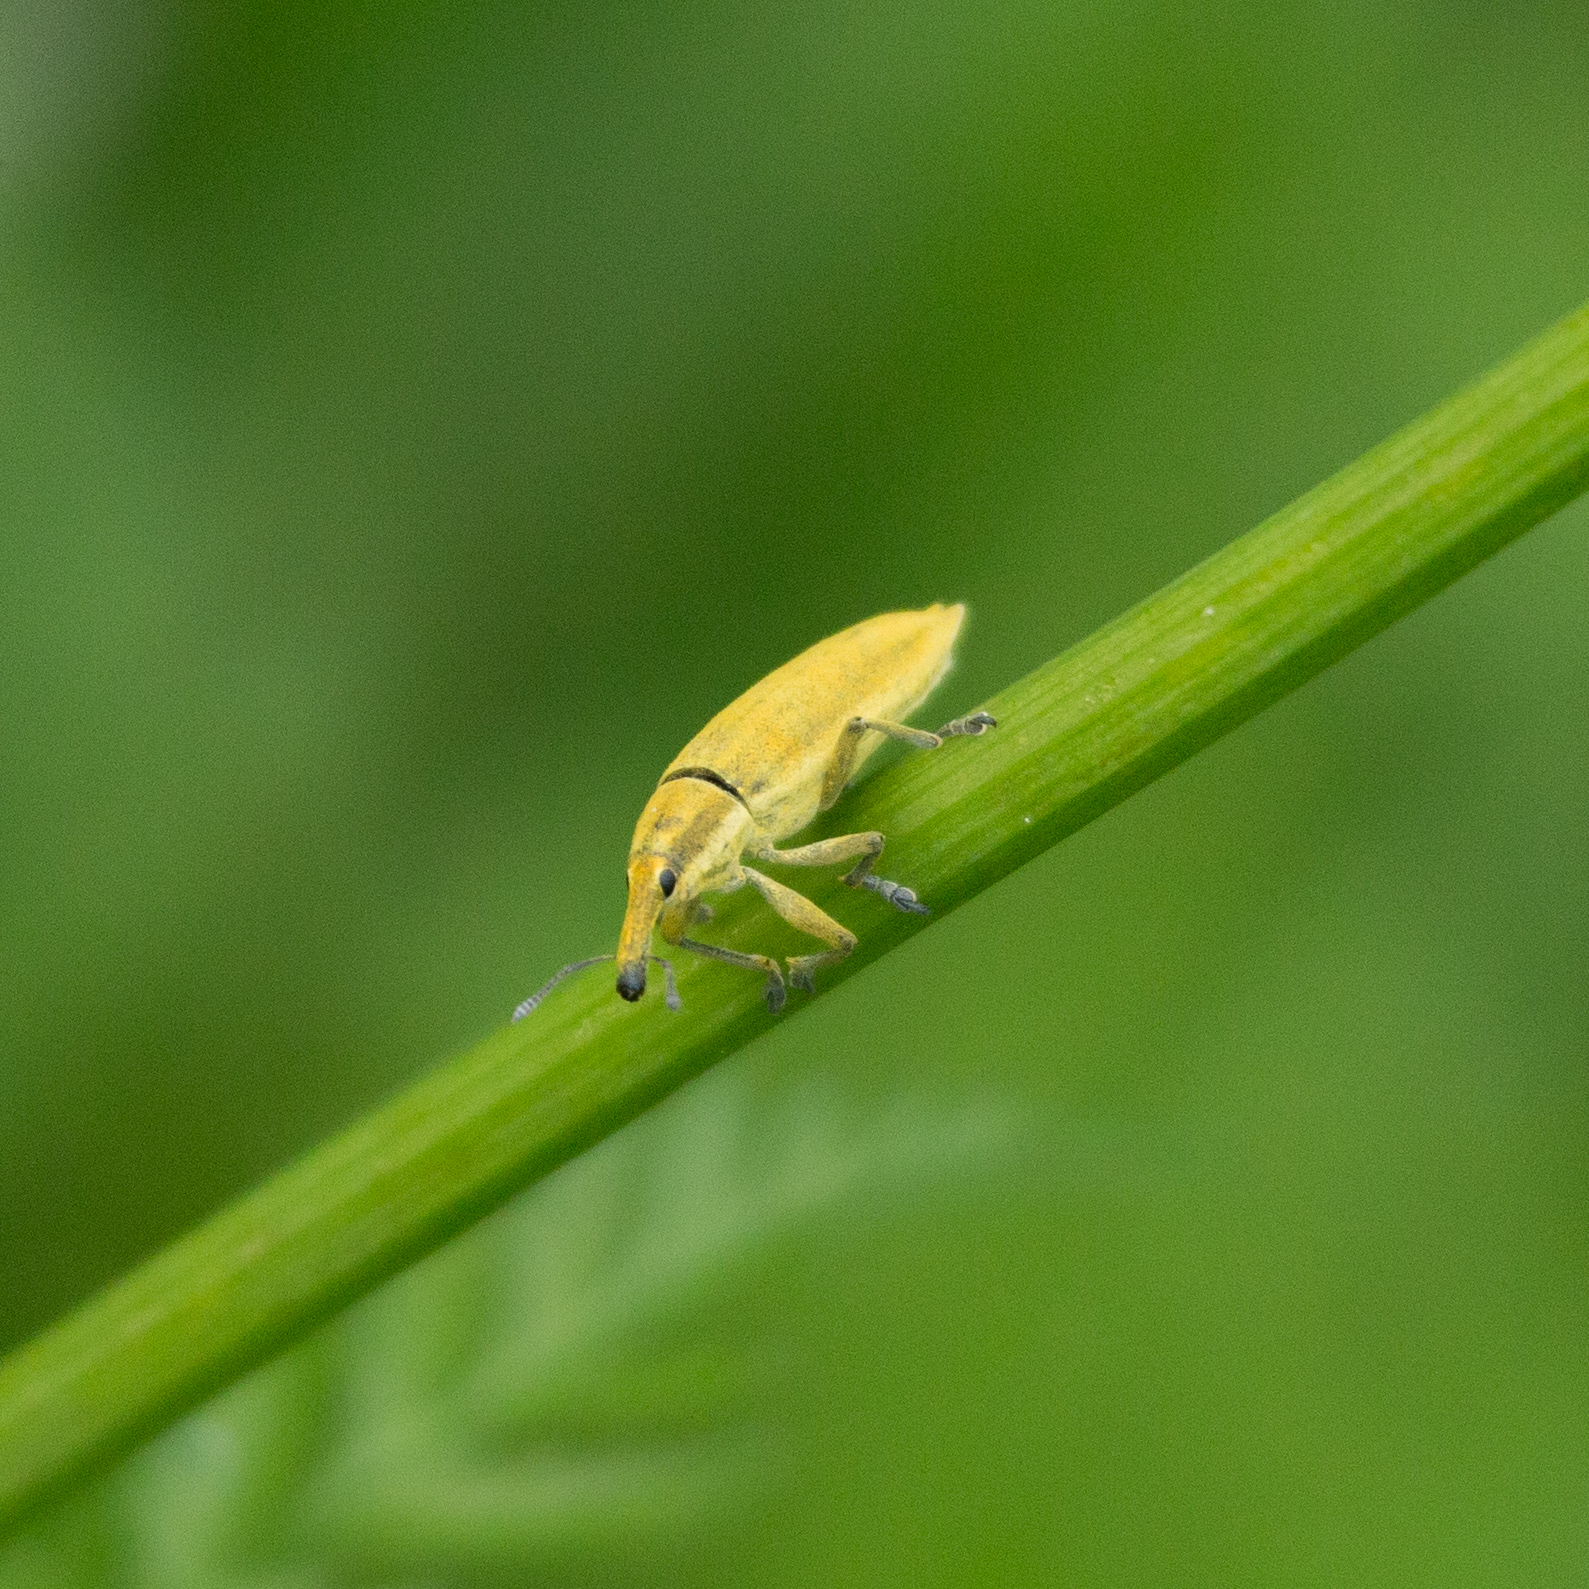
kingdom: Animalia
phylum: Arthropoda
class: Insecta
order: Coleoptera
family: Curculionidae
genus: Lixus
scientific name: Lixus iridis
